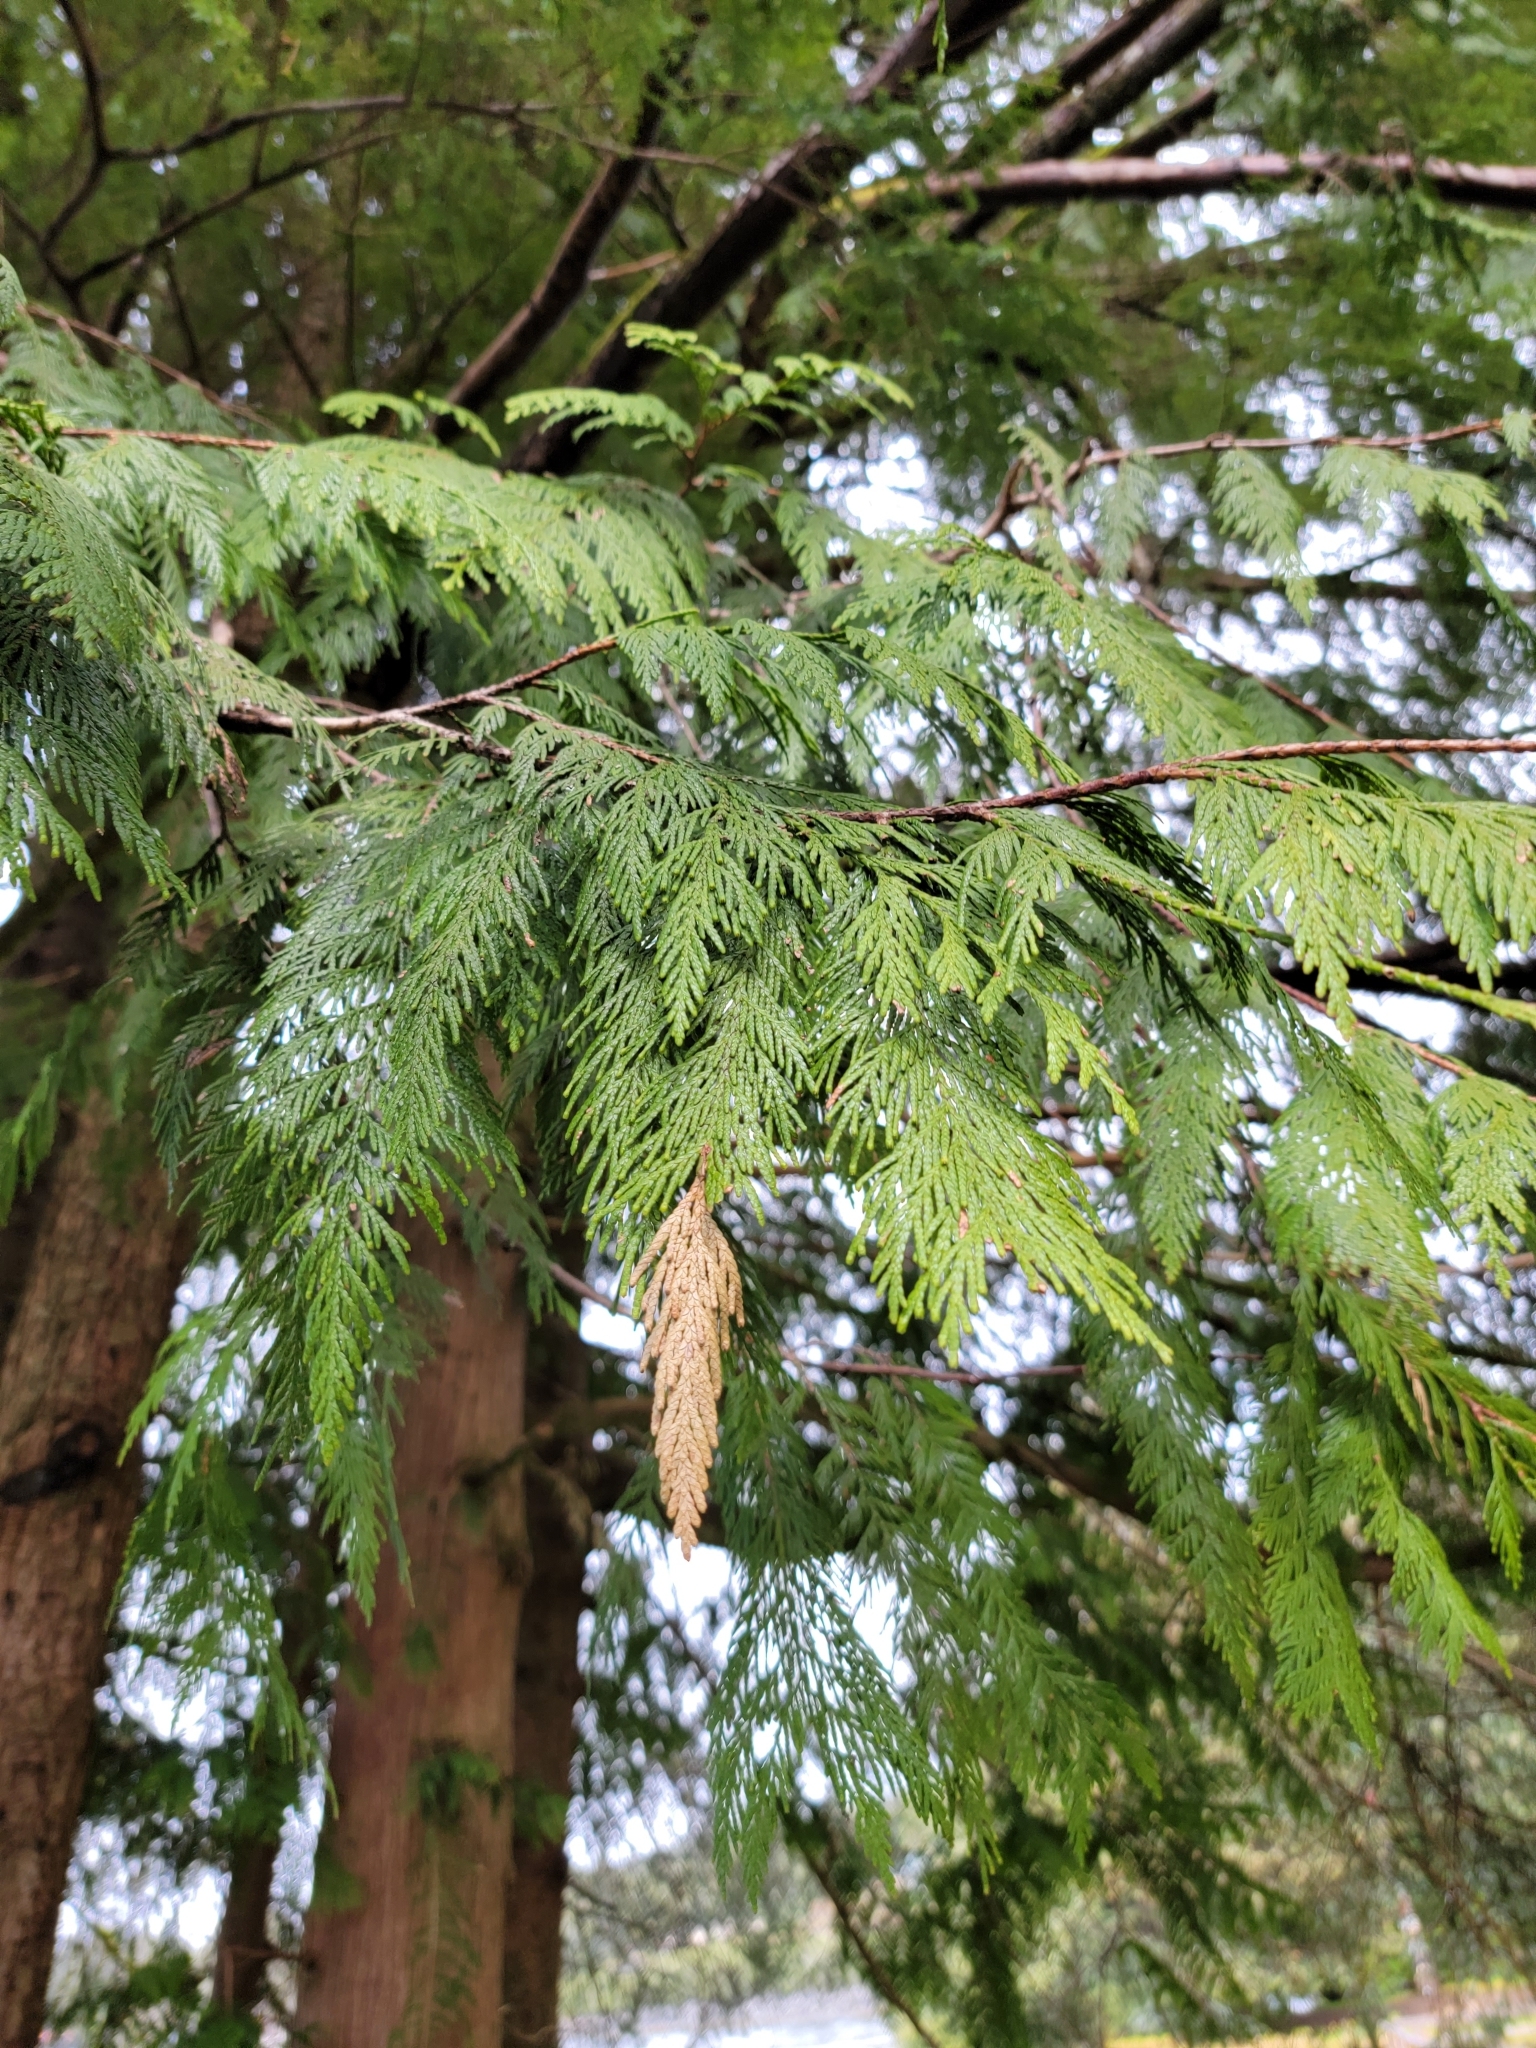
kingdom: Plantae
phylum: Tracheophyta
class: Pinopsida
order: Pinales
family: Cupressaceae
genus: Thuja
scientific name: Thuja plicata
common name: Western red-cedar
